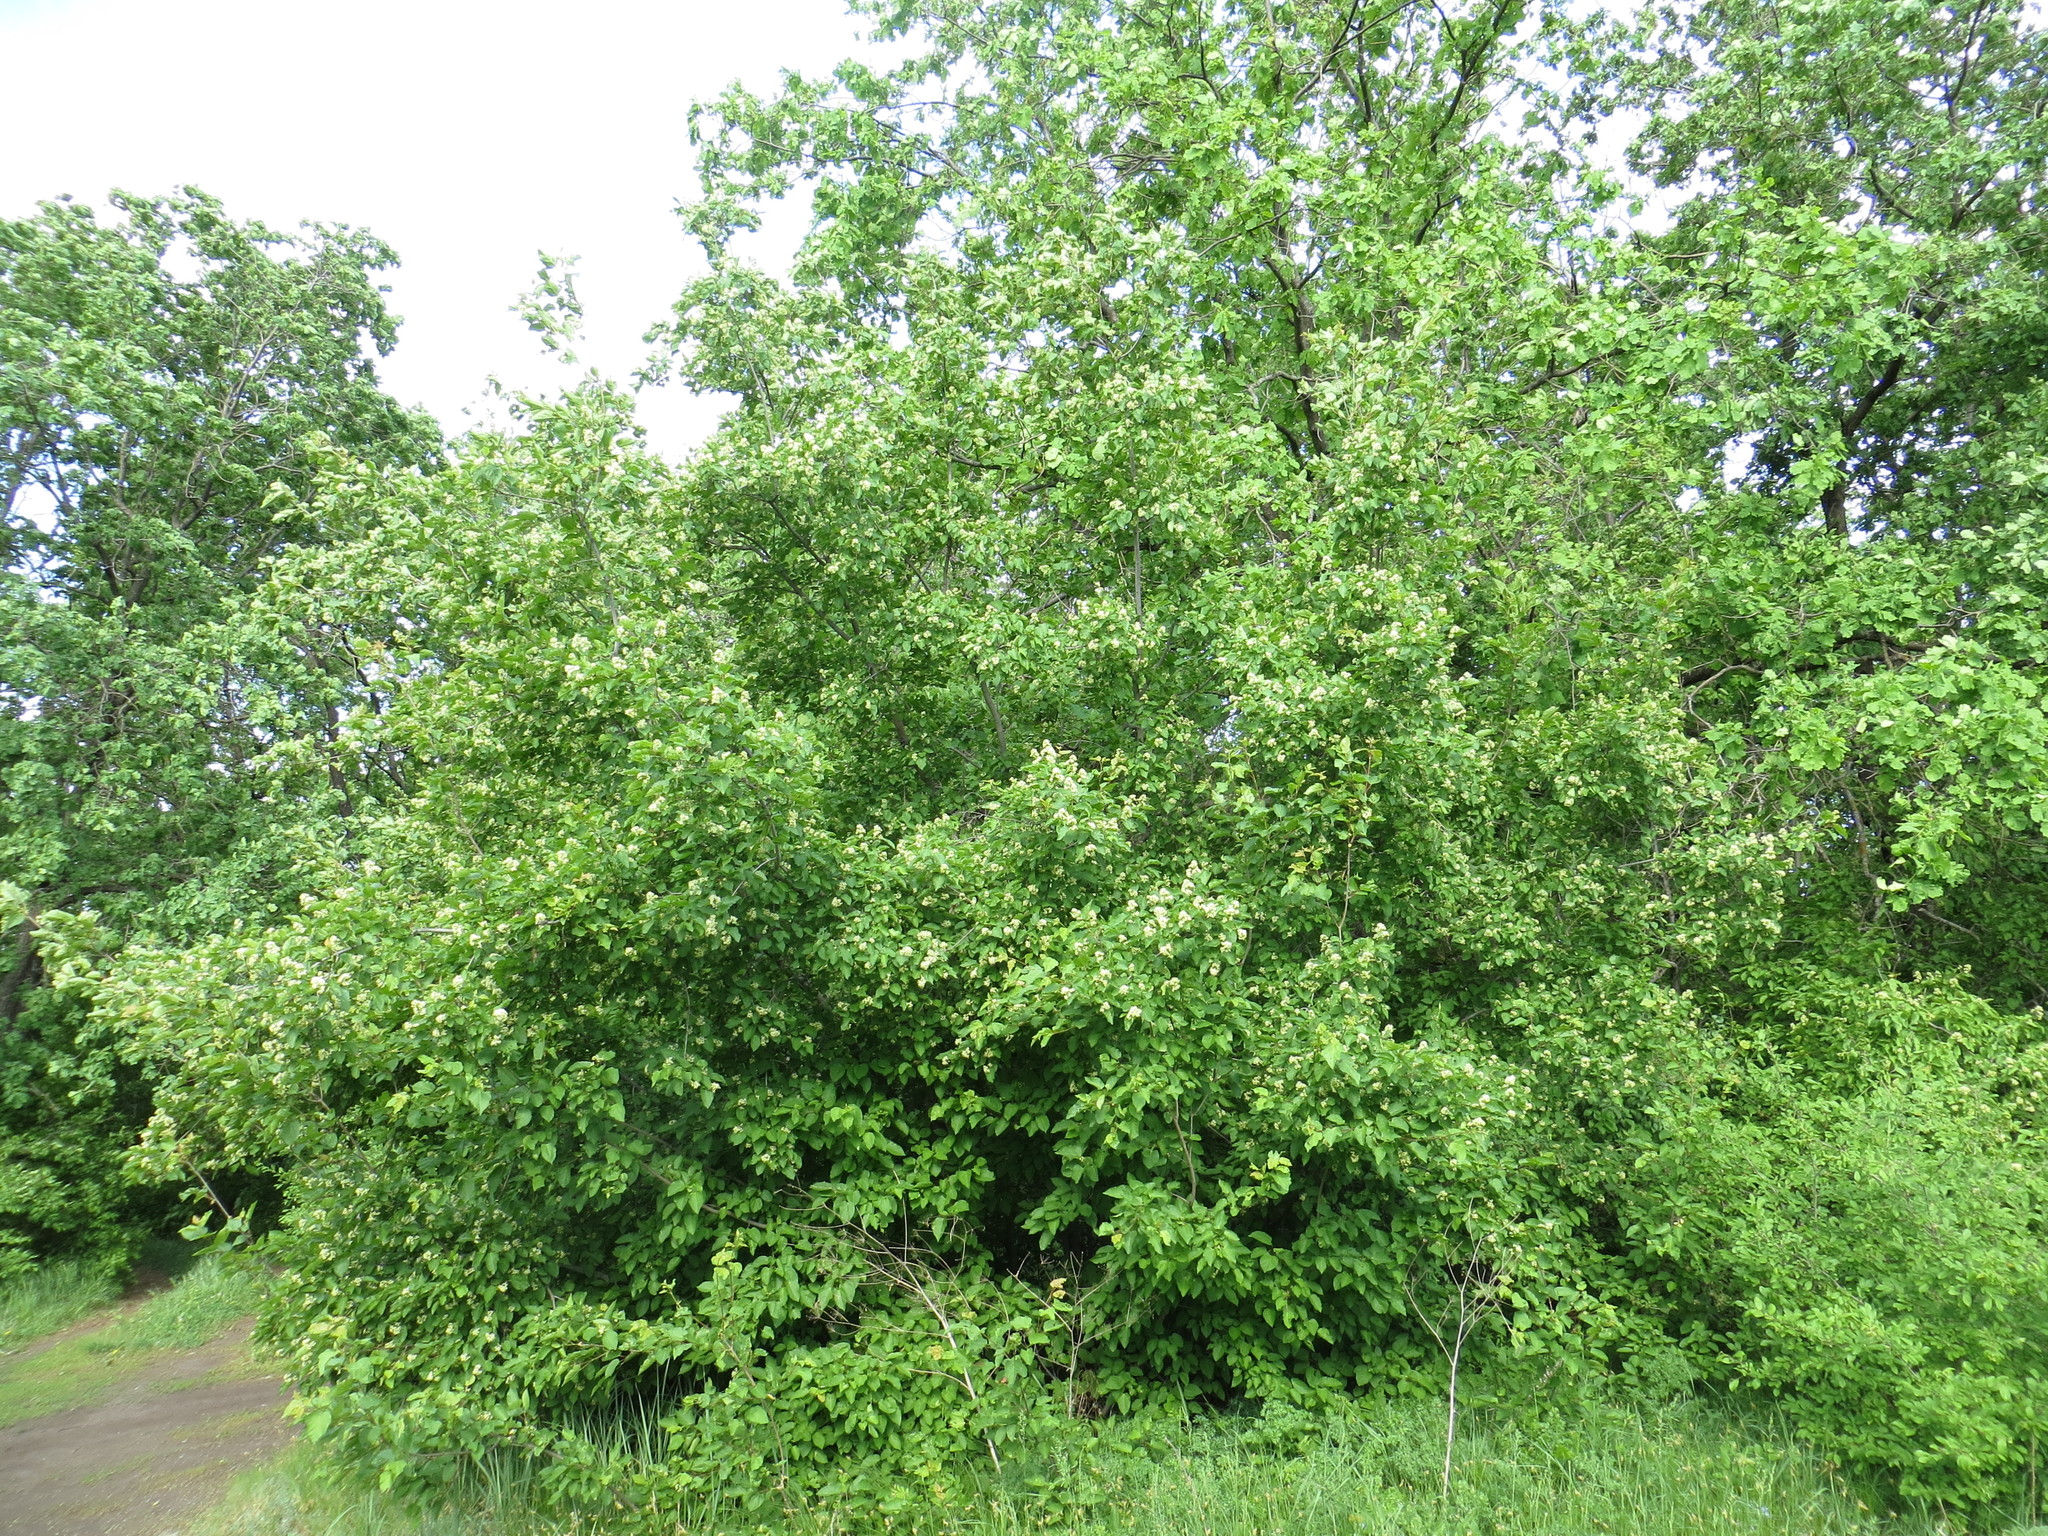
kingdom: Plantae
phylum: Tracheophyta
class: Magnoliopsida
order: Sapindales
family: Sapindaceae
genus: Acer
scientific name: Acer tataricum
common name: Tartar maple
